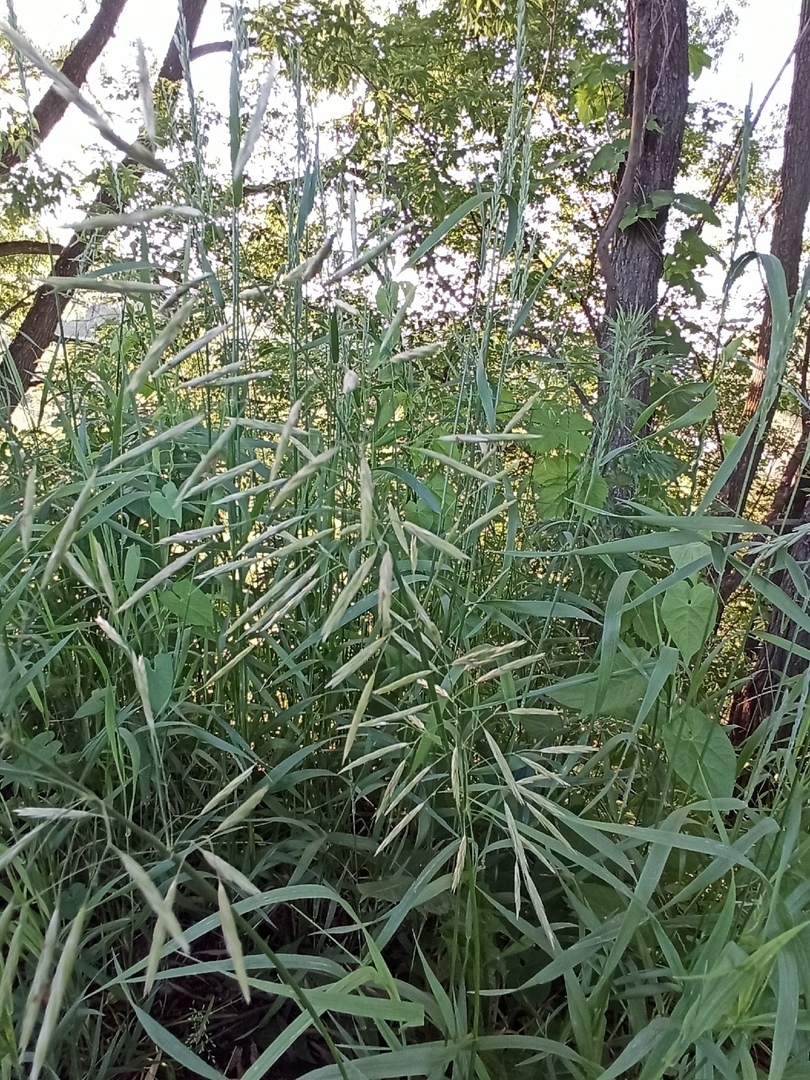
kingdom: Plantae
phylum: Tracheophyta
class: Liliopsida
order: Poales
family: Poaceae
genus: Bromus
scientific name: Bromus inermis
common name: Smooth brome
